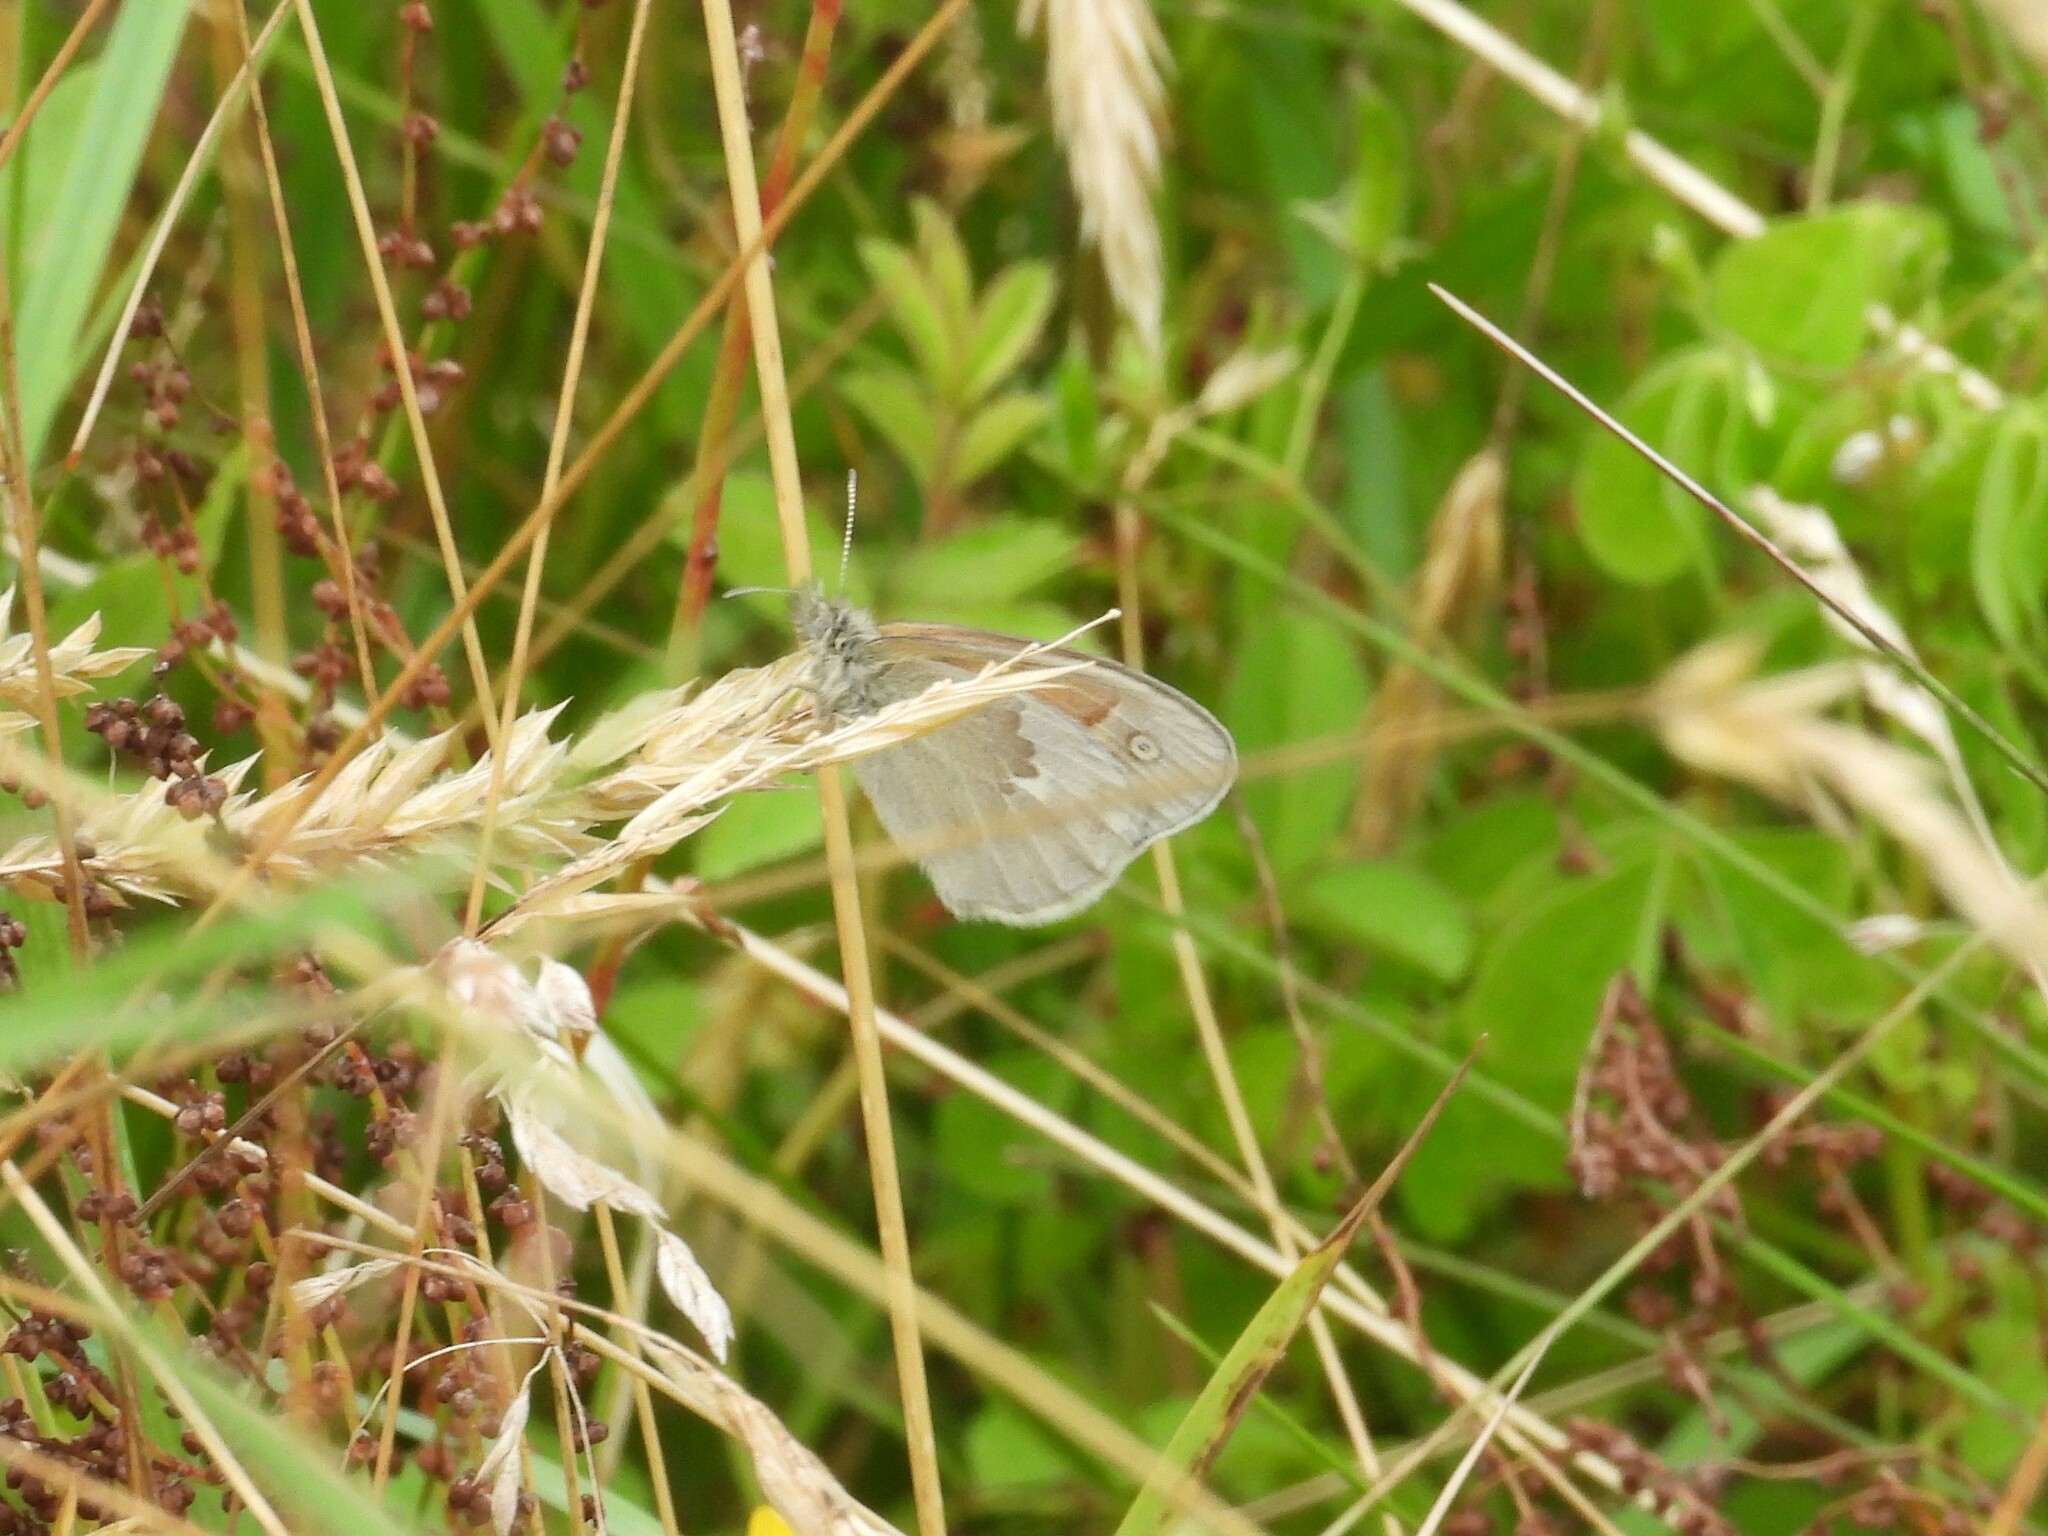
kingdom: Animalia
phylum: Arthropoda
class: Insecta
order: Lepidoptera
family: Nymphalidae
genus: Coenonympha
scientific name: Coenonympha california
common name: Common ringlet
